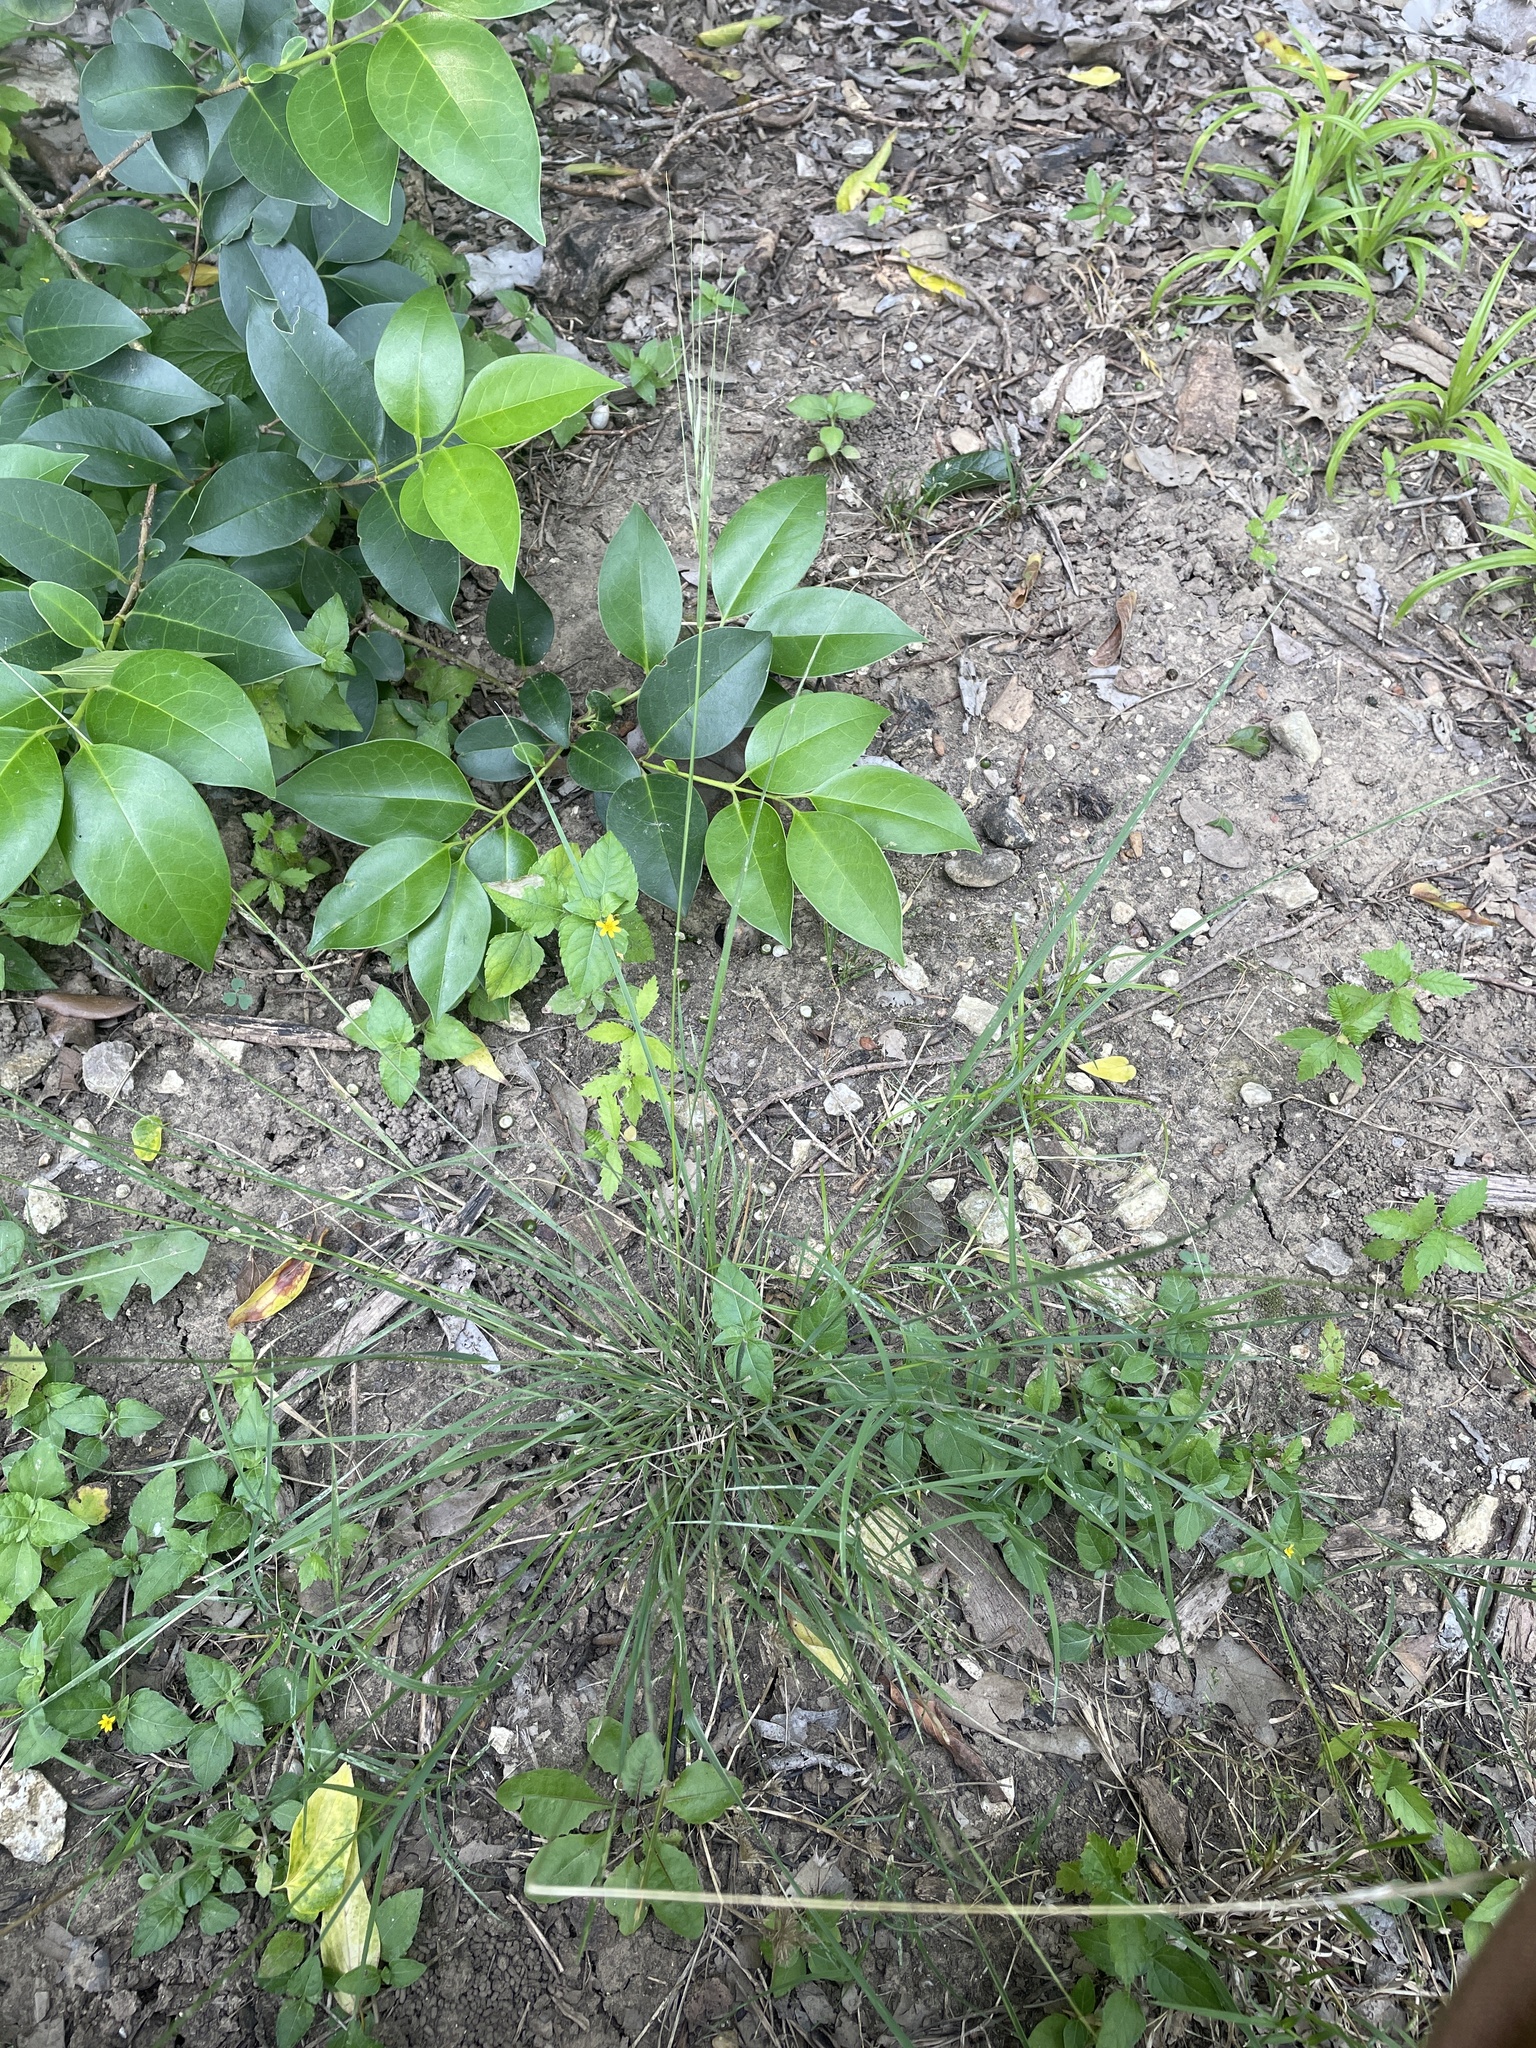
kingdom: Plantae
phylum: Tracheophyta
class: Liliopsida
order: Poales
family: Poaceae
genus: Nassella
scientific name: Nassella leucotricha
